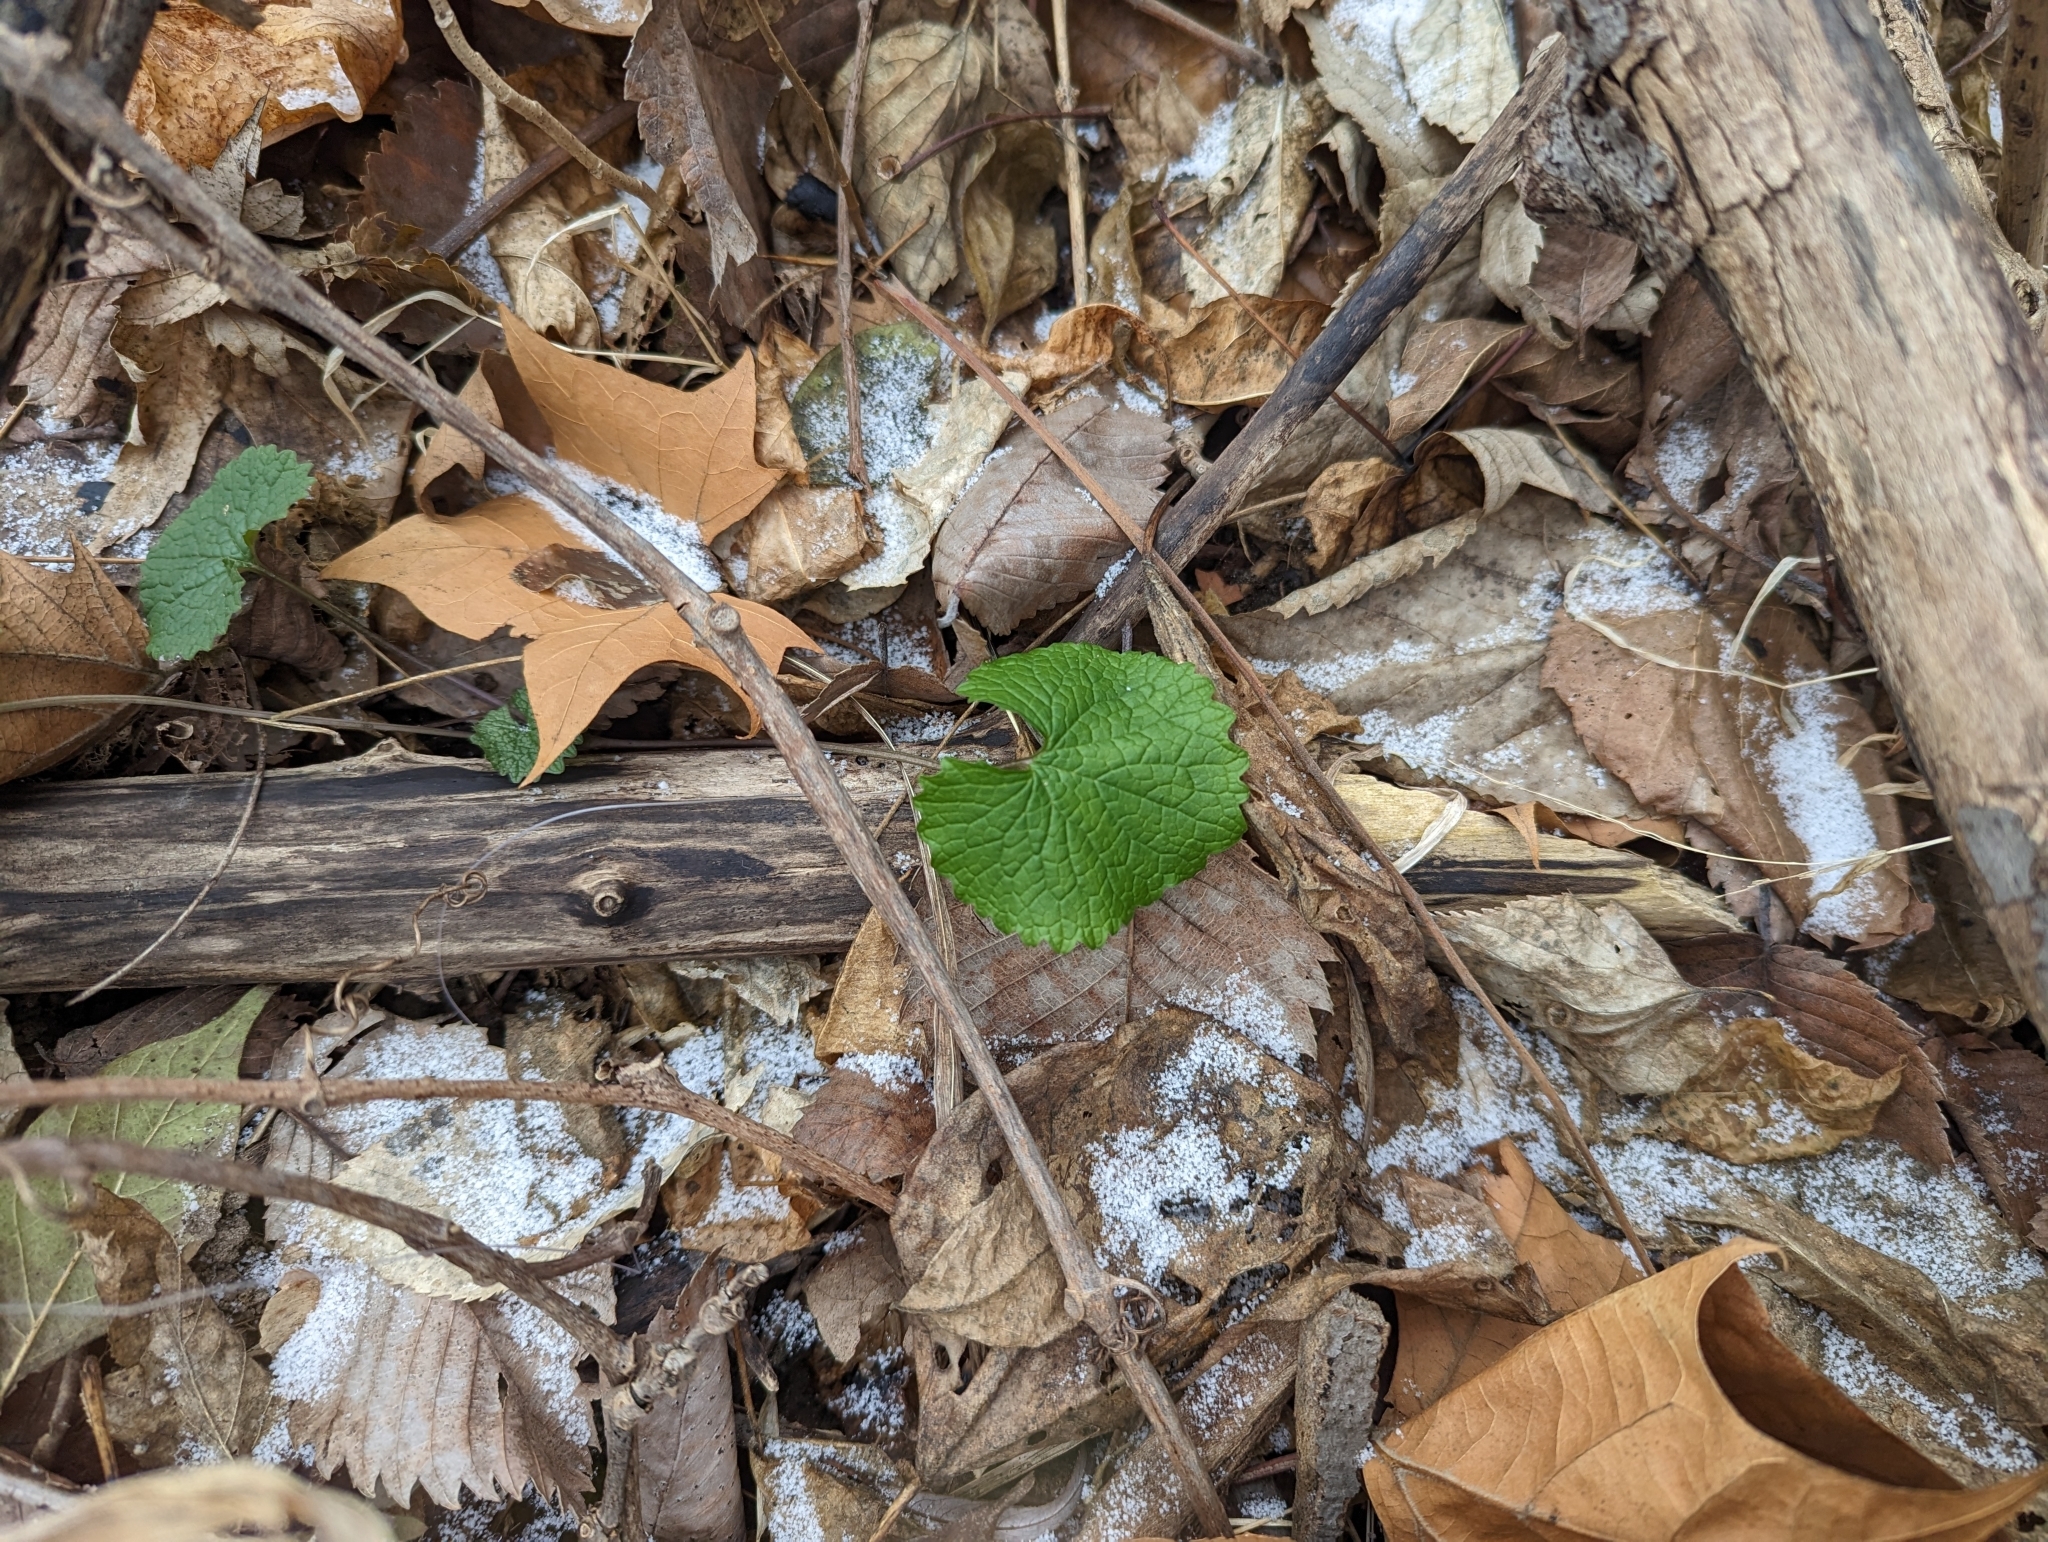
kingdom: Plantae
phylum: Tracheophyta
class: Magnoliopsida
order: Brassicales
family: Brassicaceae
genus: Alliaria
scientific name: Alliaria petiolata
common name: Garlic mustard
